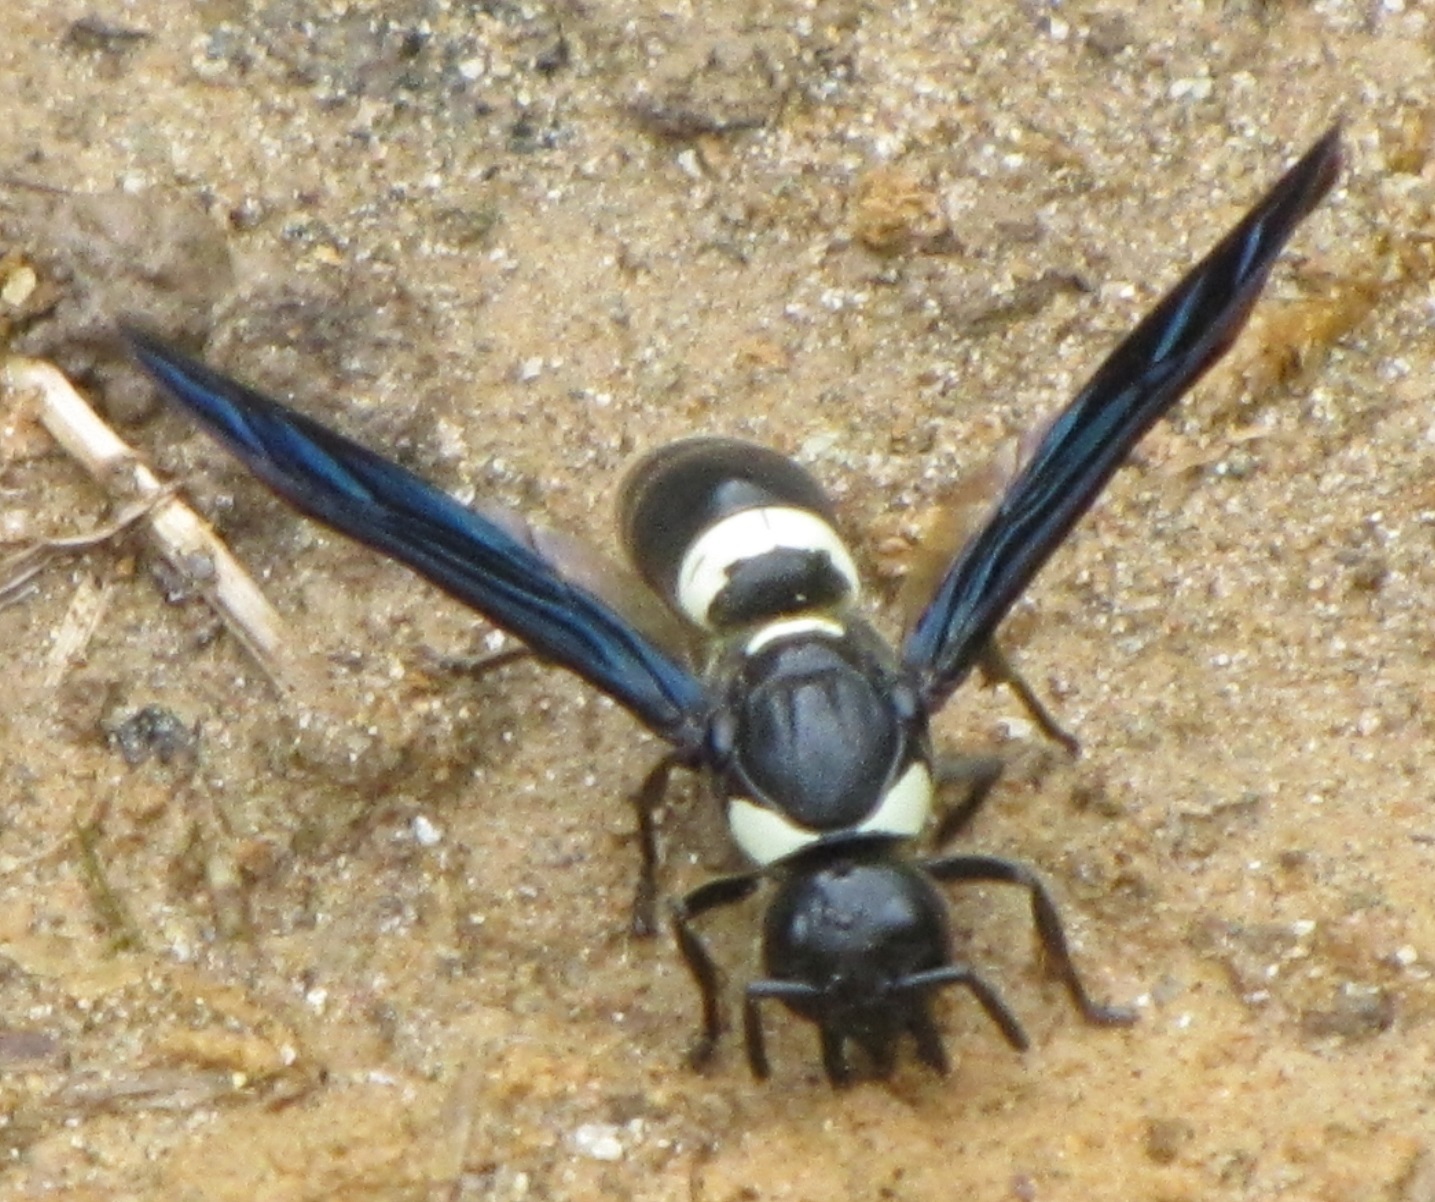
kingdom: Animalia
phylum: Arthropoda
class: Insecta
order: Hymenoptera
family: Eumenidae
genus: Monobia
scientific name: Monobia quadridens
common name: Four-toothed mason wasp
